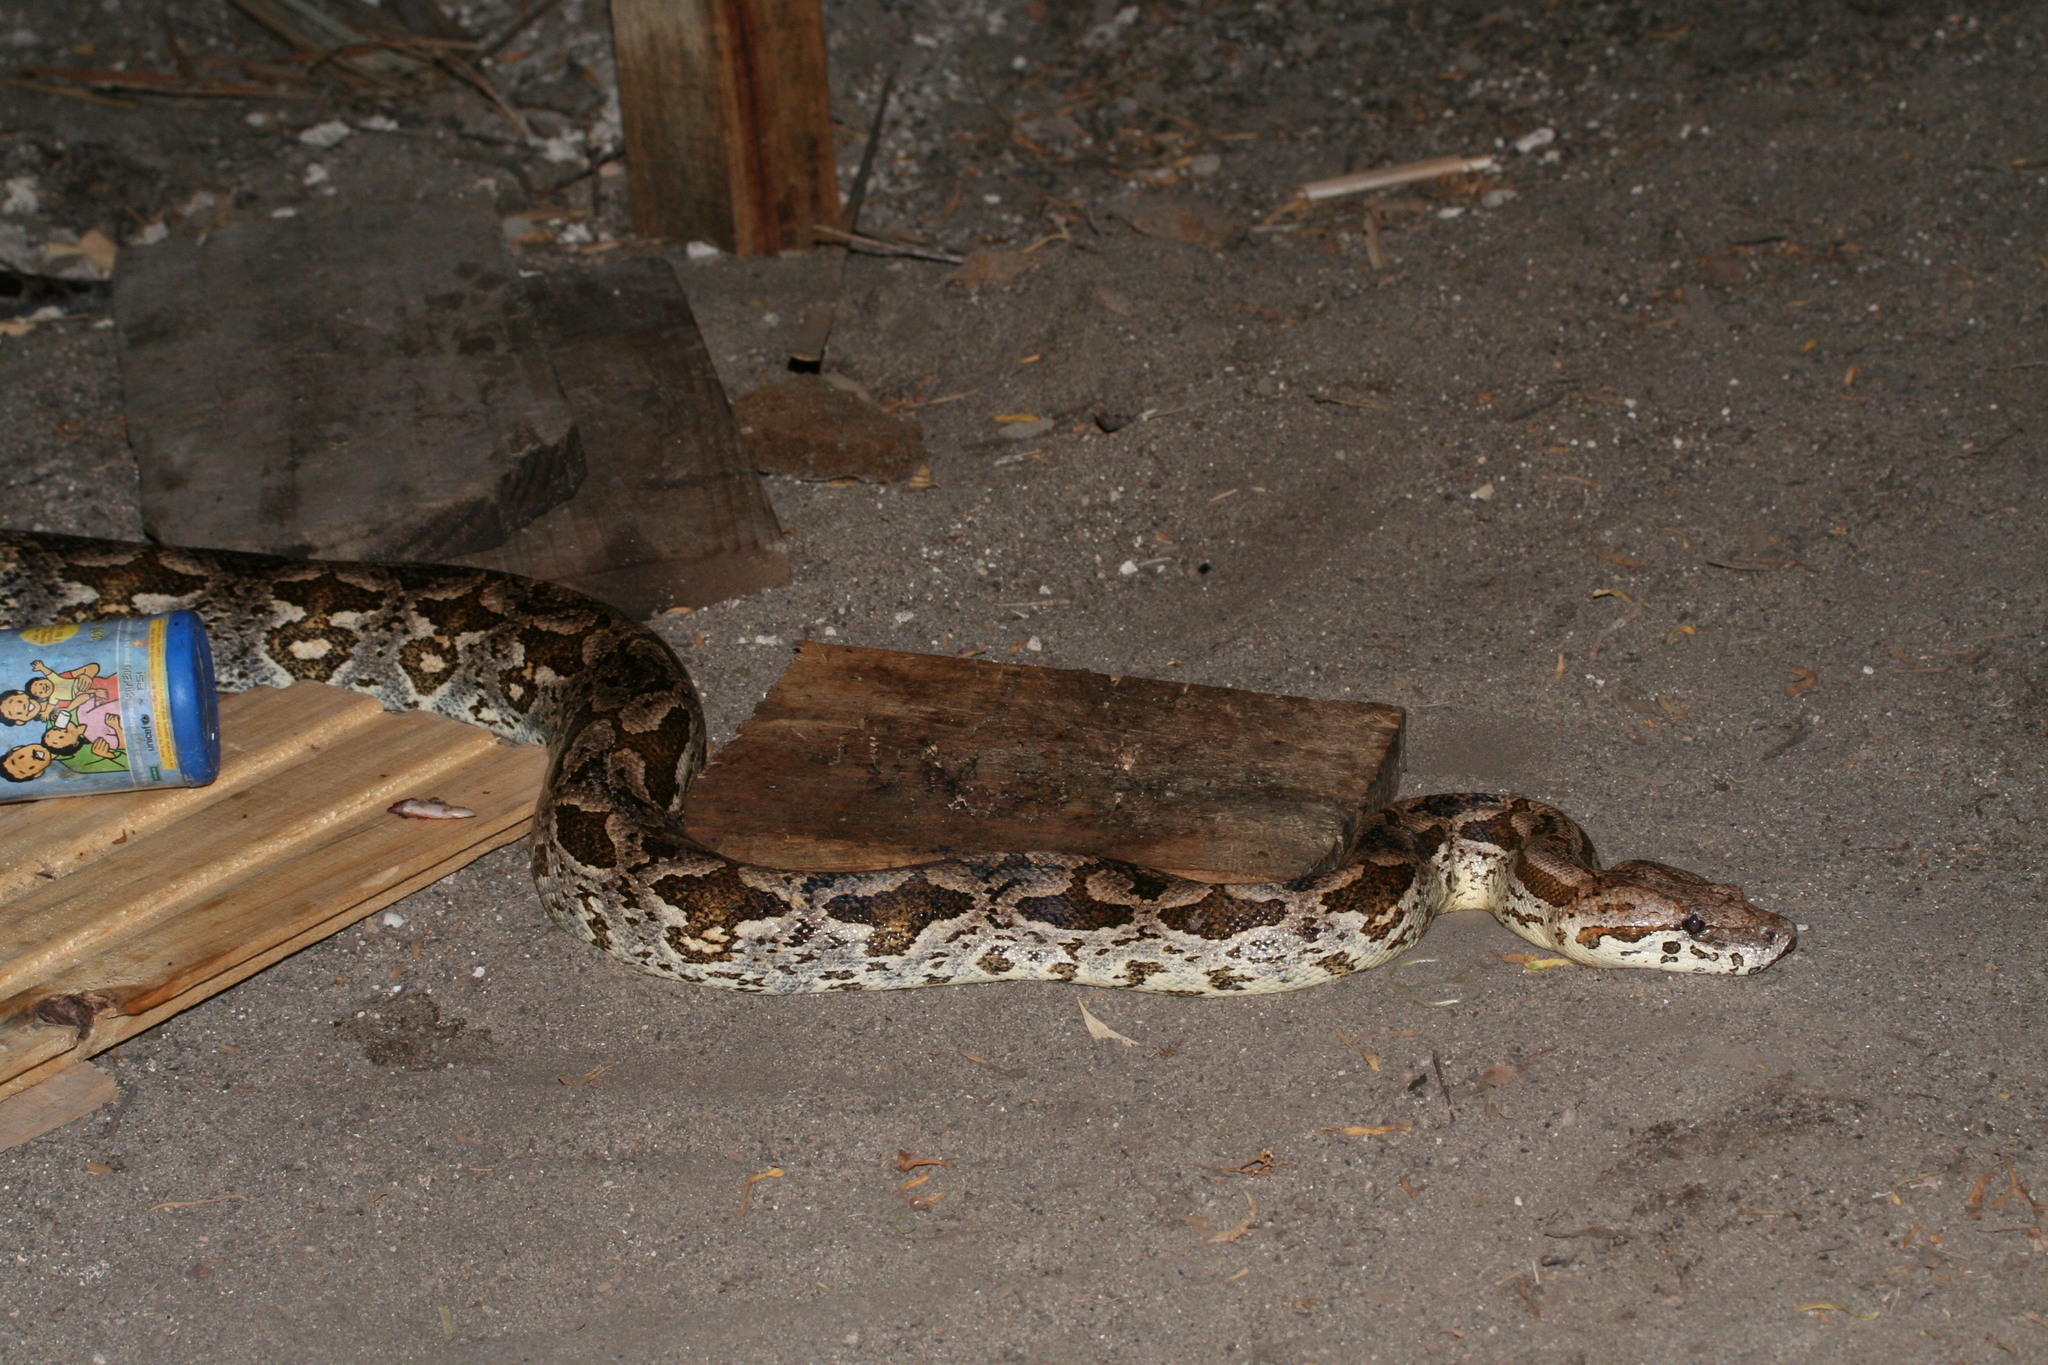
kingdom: Animalia
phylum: Chordata
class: Squamata
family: Boidae
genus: Acrantophis
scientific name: Acrantophis dumerili
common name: Dumeril's boa
